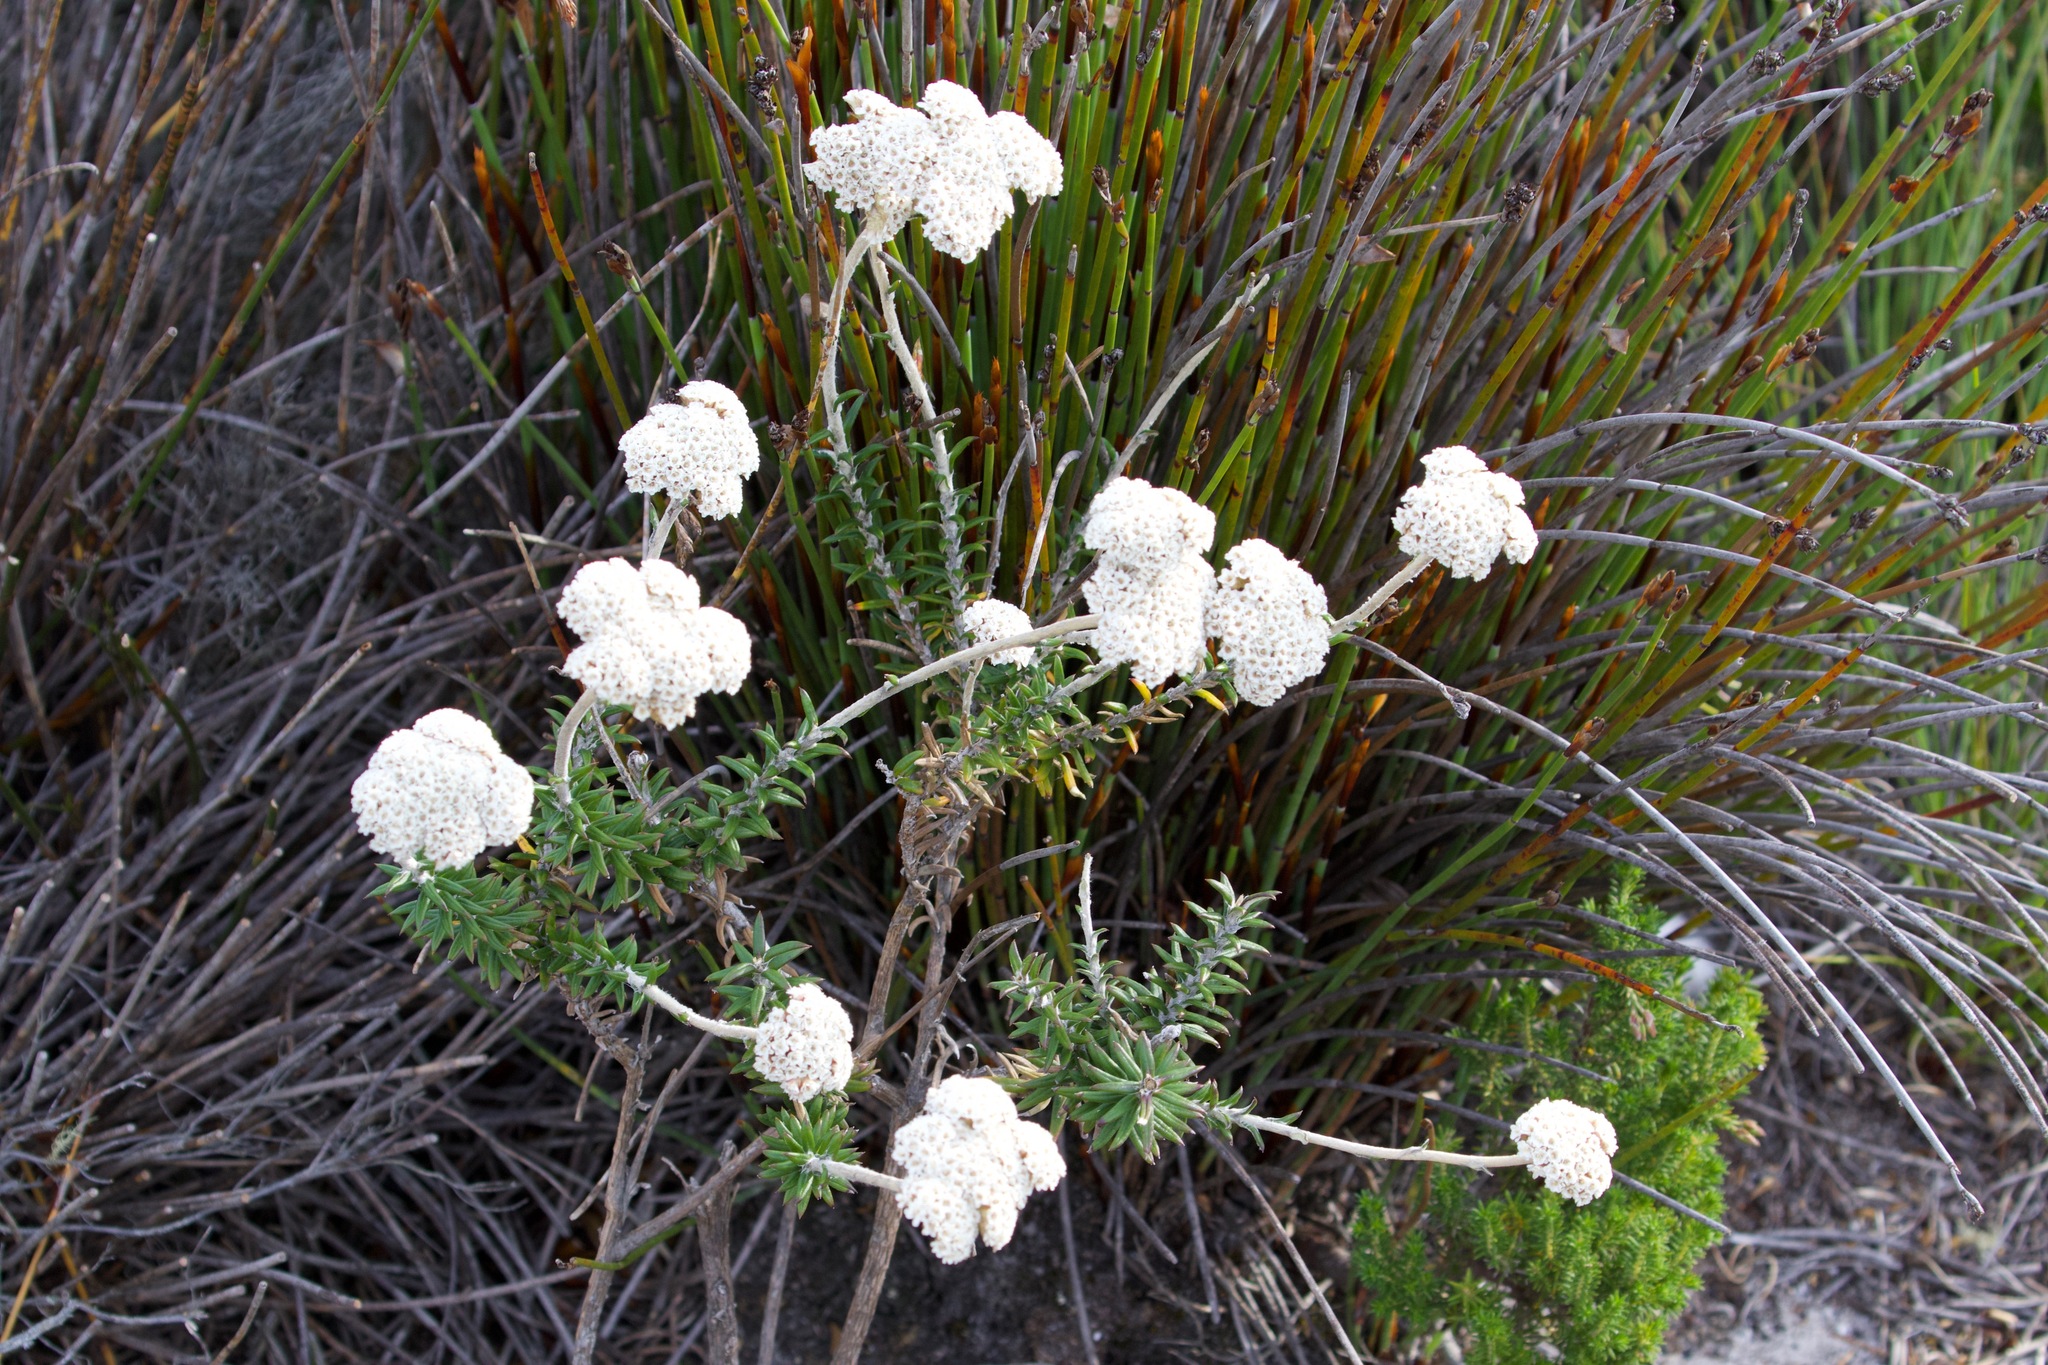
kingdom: Plantae
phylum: Tracheophyta
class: Magnoliopsida
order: Asterales
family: Asteraceae
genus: Anaxeton
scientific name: Anaxeton arborescens
